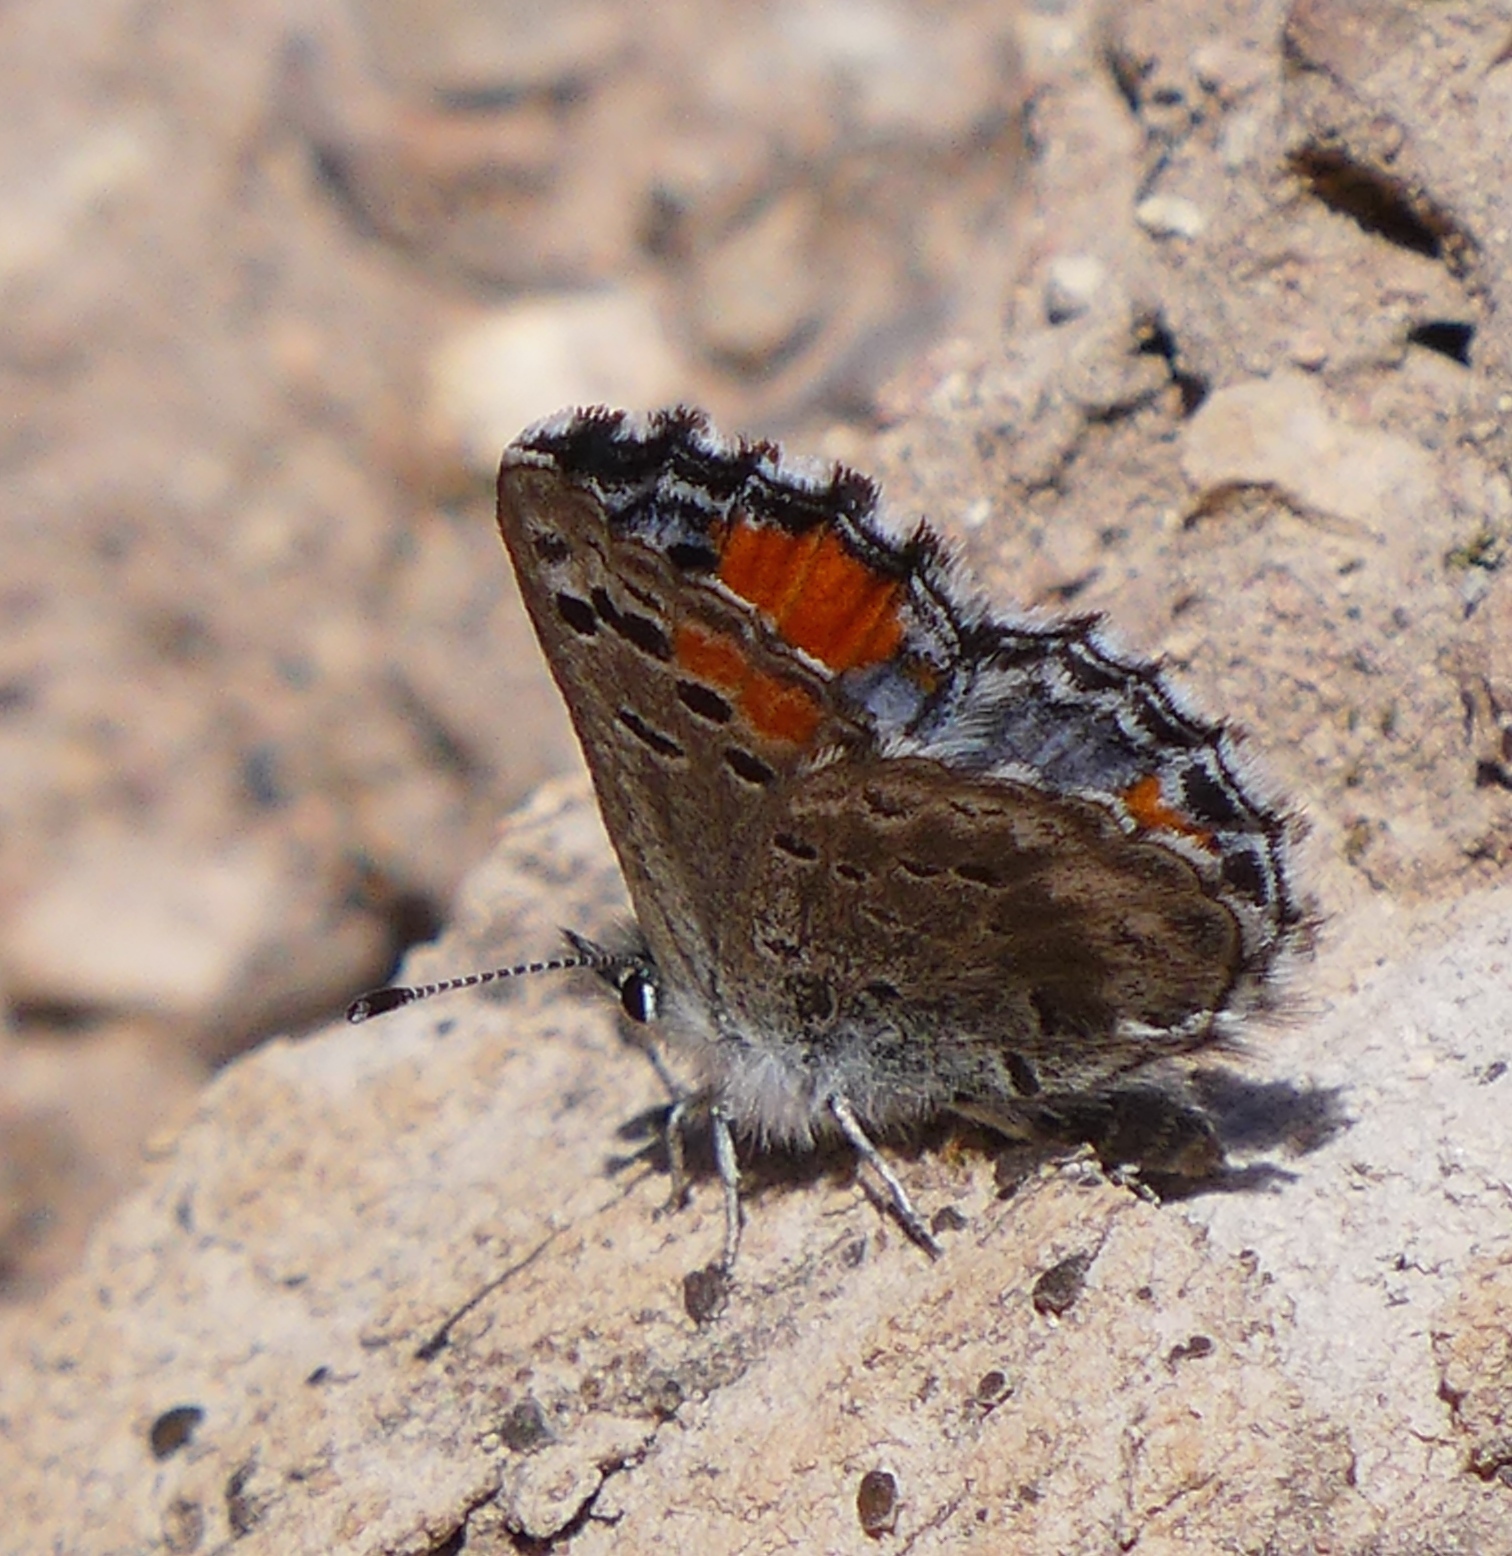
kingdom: Animalia
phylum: Arthropoda
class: Insecta
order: Lepidoptera
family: Lycaenidae
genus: Philotes
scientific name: Philotes sonorensis
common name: Sonoran blue
